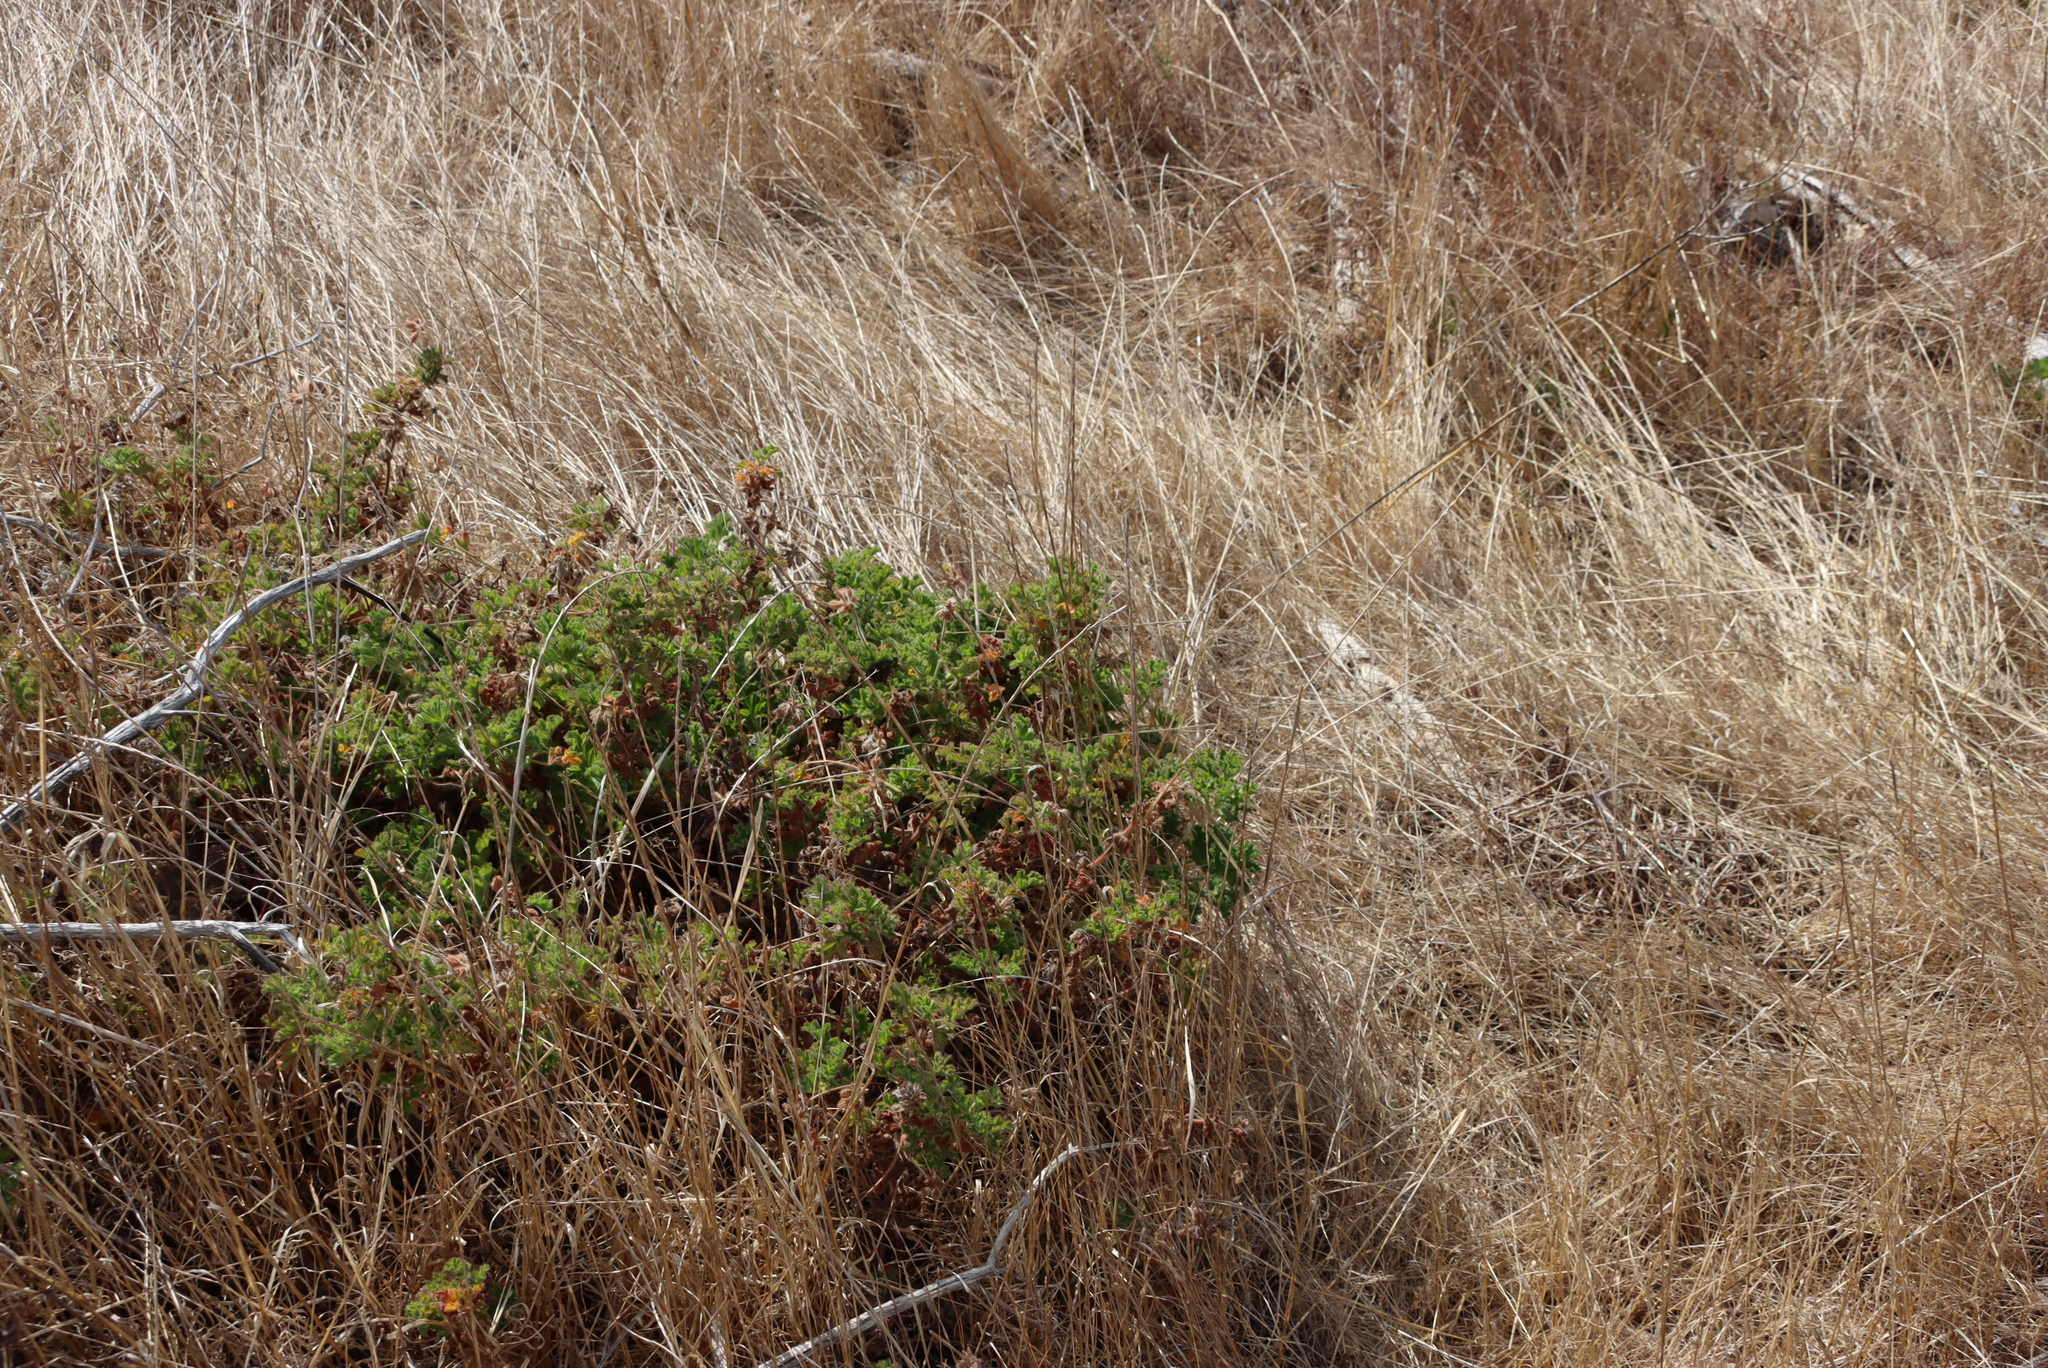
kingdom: Plantae
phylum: Tracheophyta
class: Magnoliopsida
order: Geraniales
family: Geraniaceae
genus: Pelargonium
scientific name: Pelargonium capitatum
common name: Rose scented geranium
